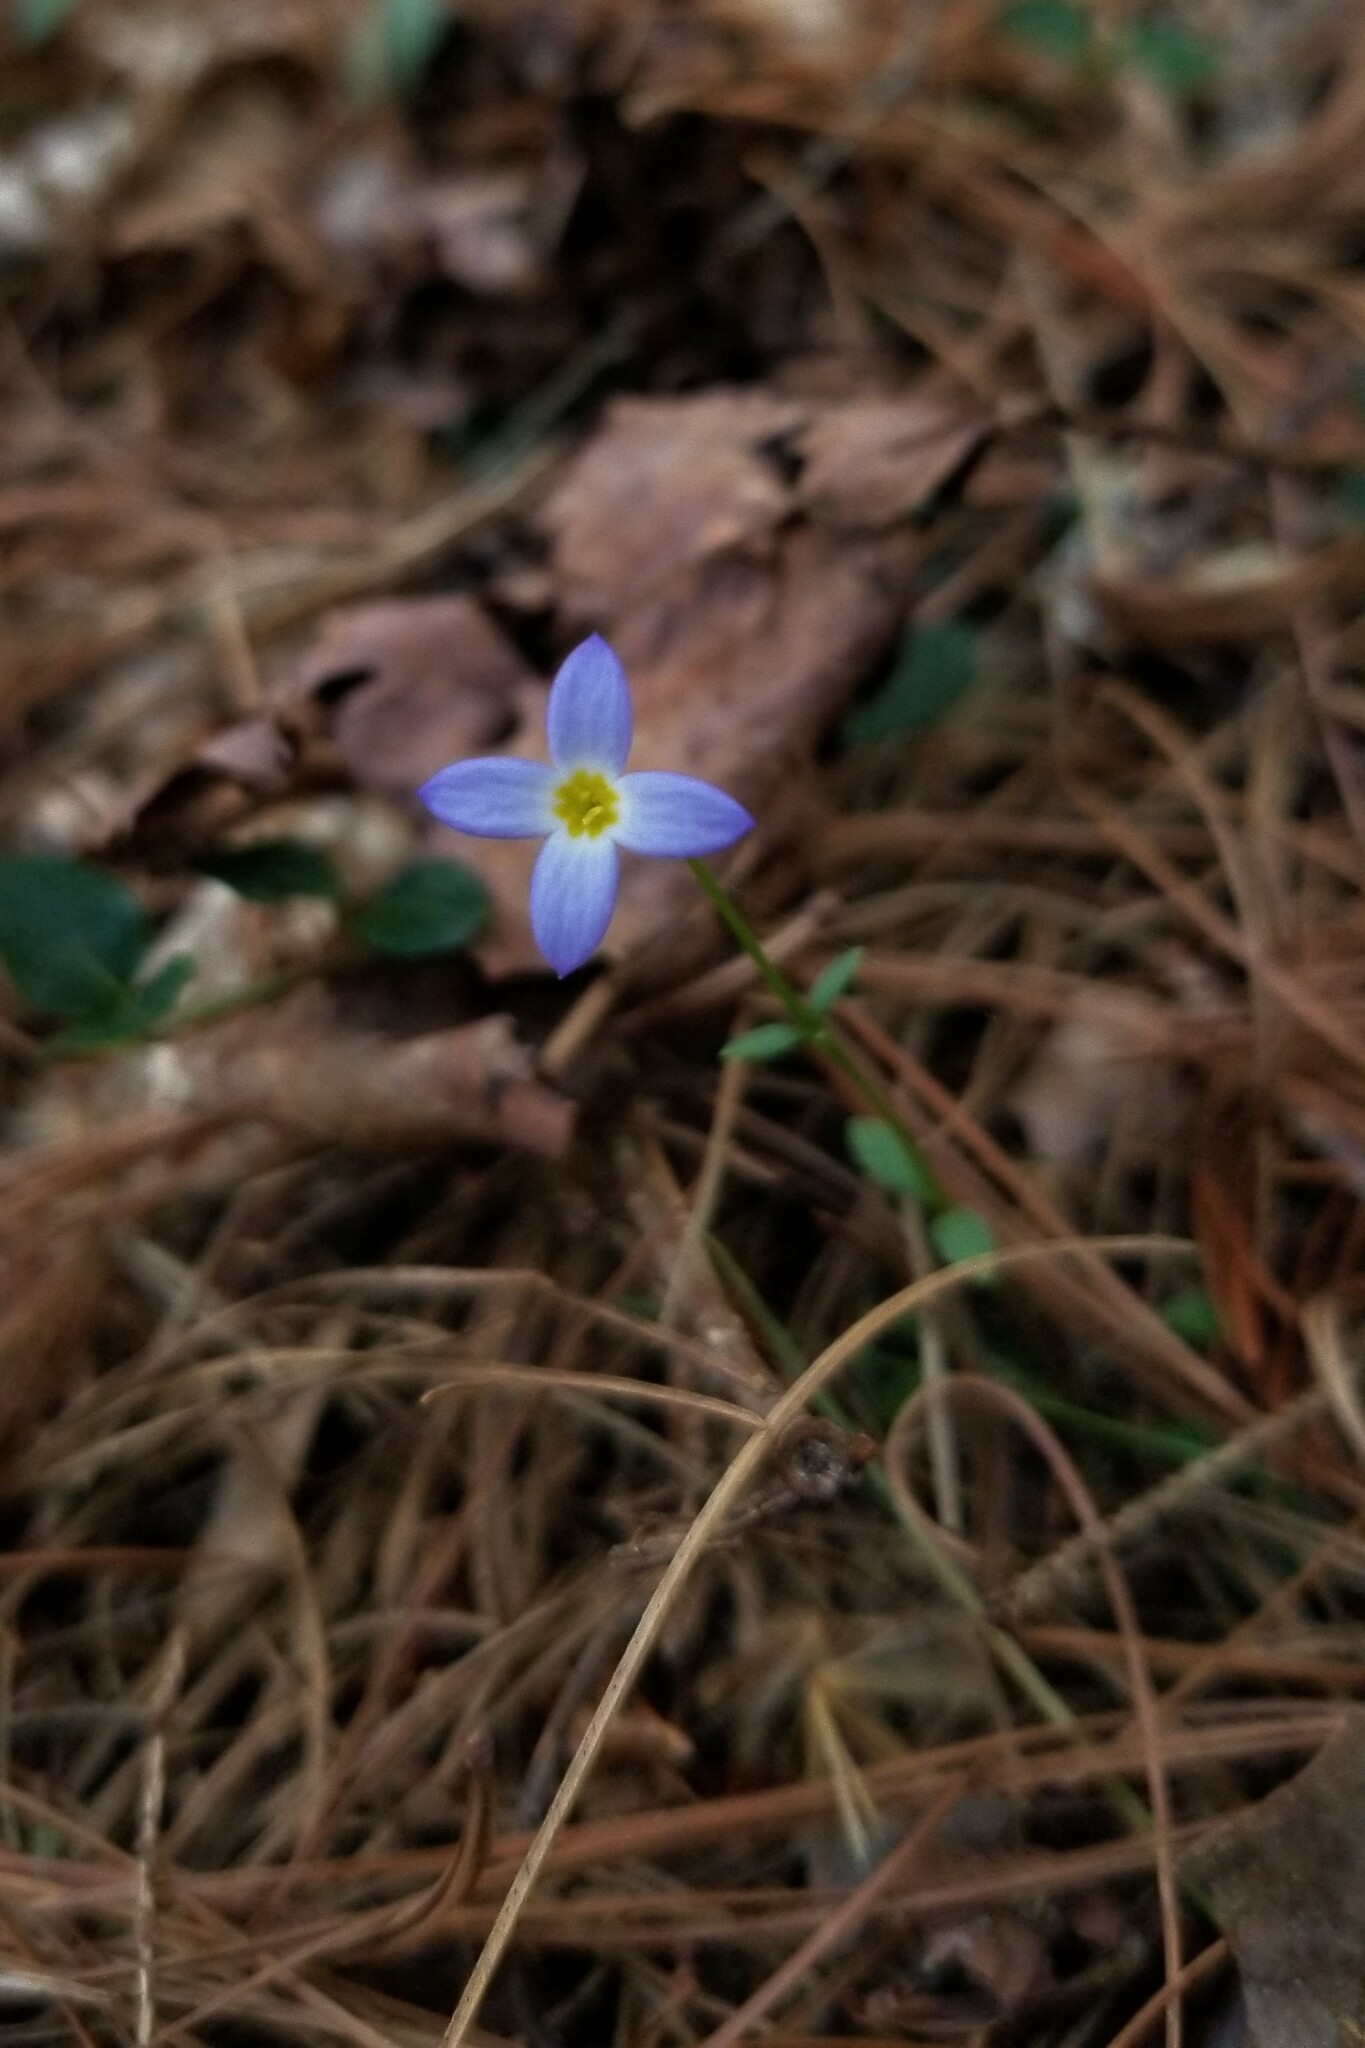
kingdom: Plantae
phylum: Tracheophyta
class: Magnoliopsida
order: Gentianales
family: Rubiaceae
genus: Houstonia
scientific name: Houstonia caerulea
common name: Bluets
